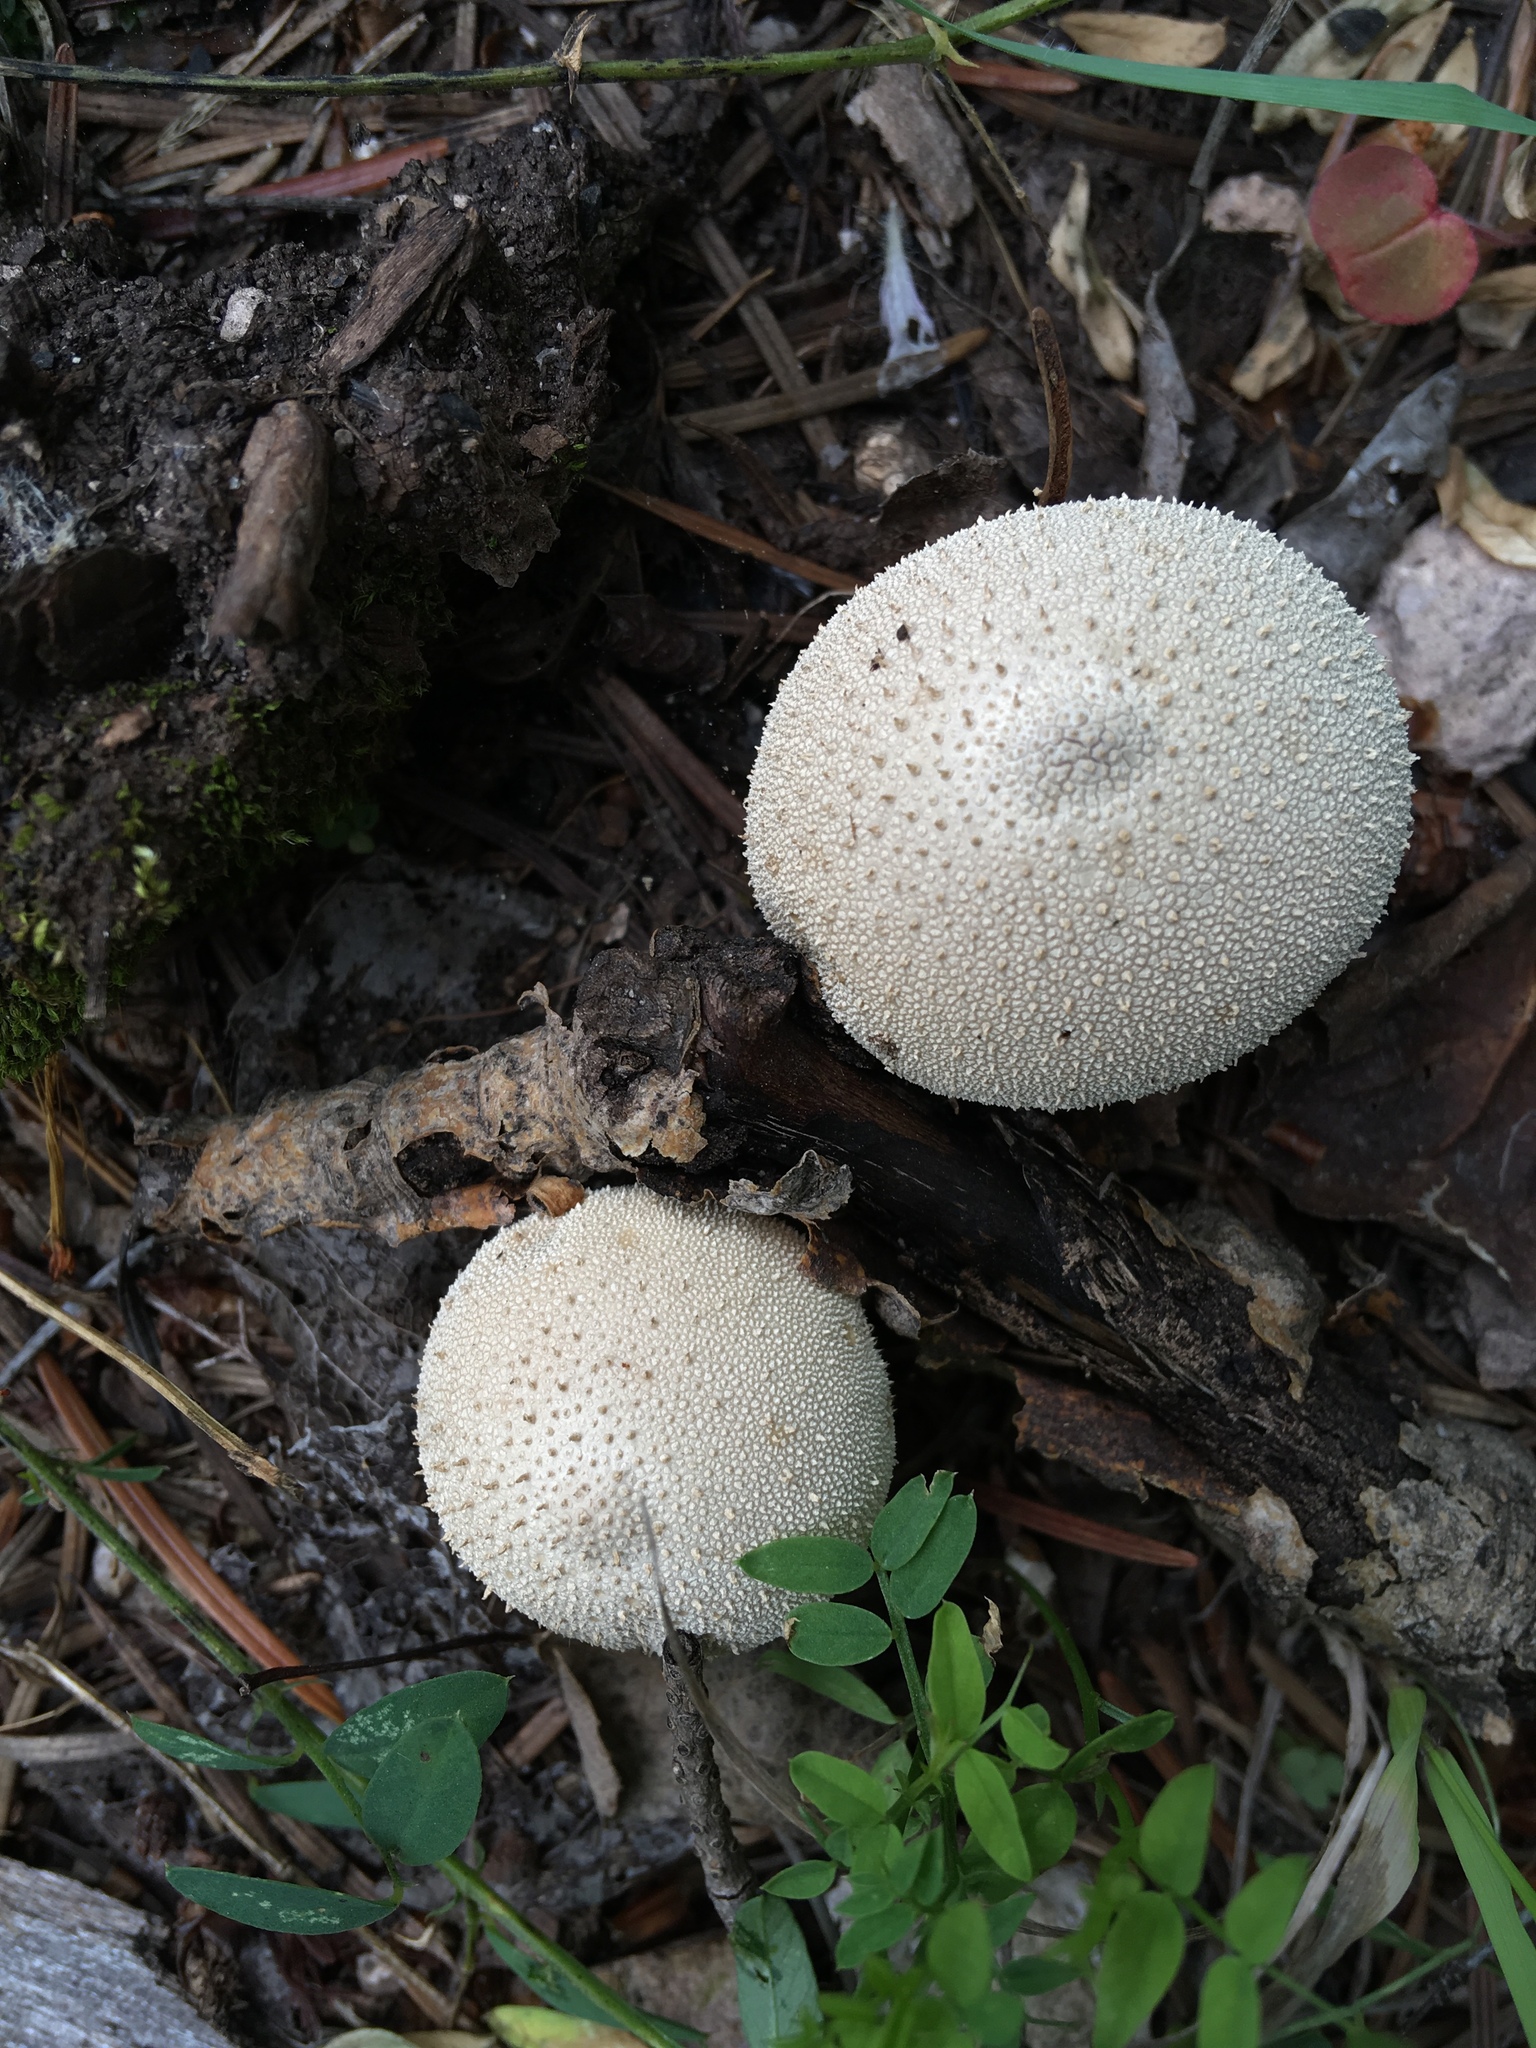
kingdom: Fungi
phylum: Basidiomycota
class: Agaricomycetes
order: Agaricales
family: Lycoperdaceae
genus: Lycoperdon
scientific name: Lycoperdon perlatum
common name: Common puffball
